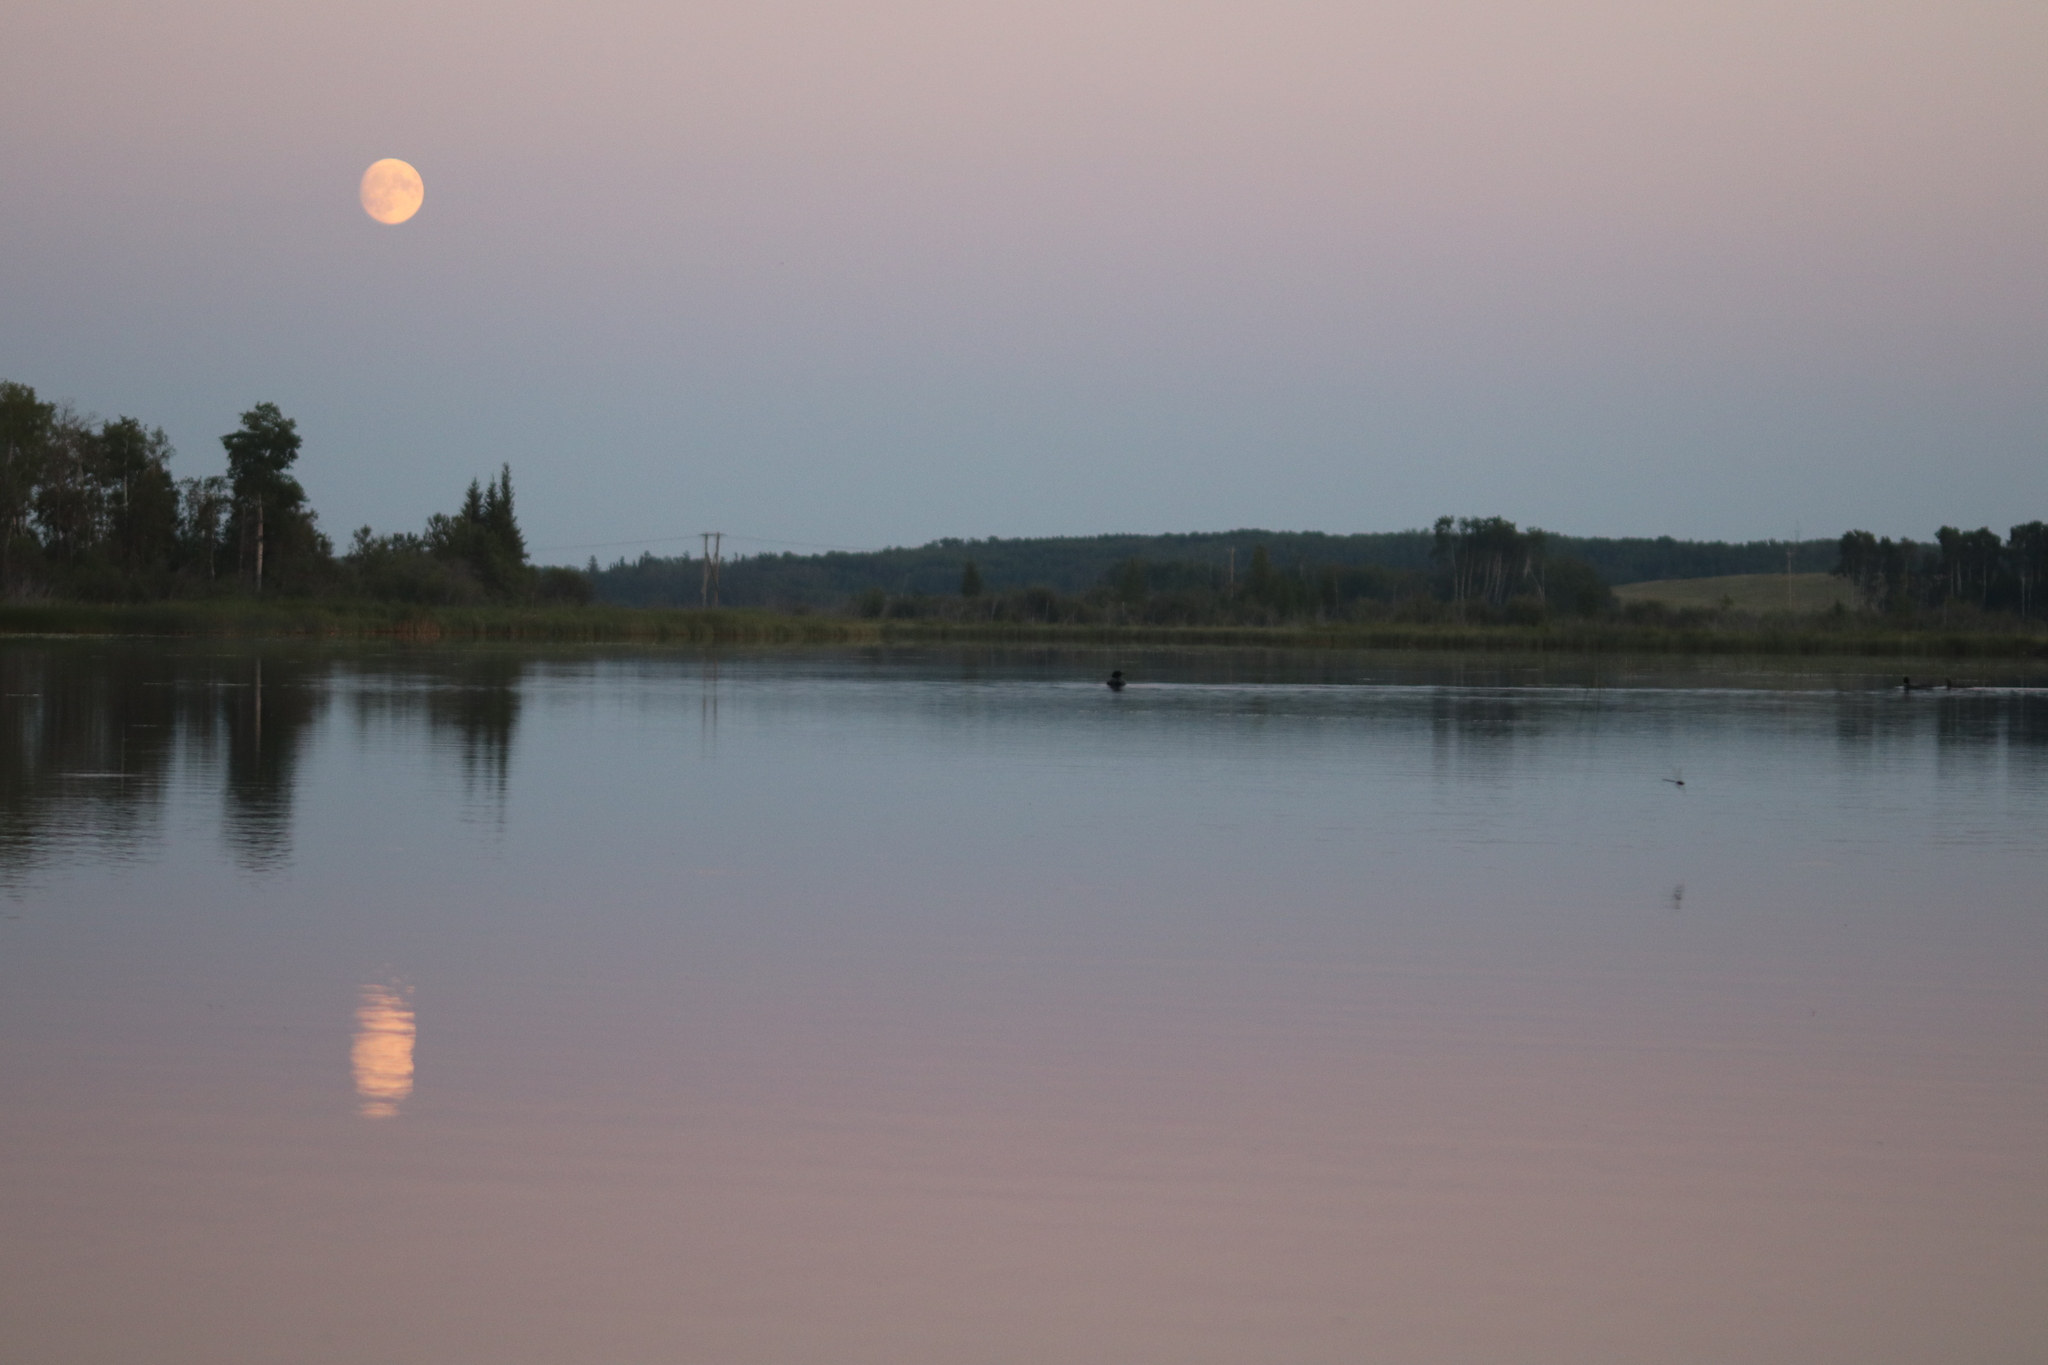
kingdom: Animalia
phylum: Chordata
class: Aves
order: Gaviiformes
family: Gaviidae
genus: Gavia
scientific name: Gavia immer
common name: Common loon
